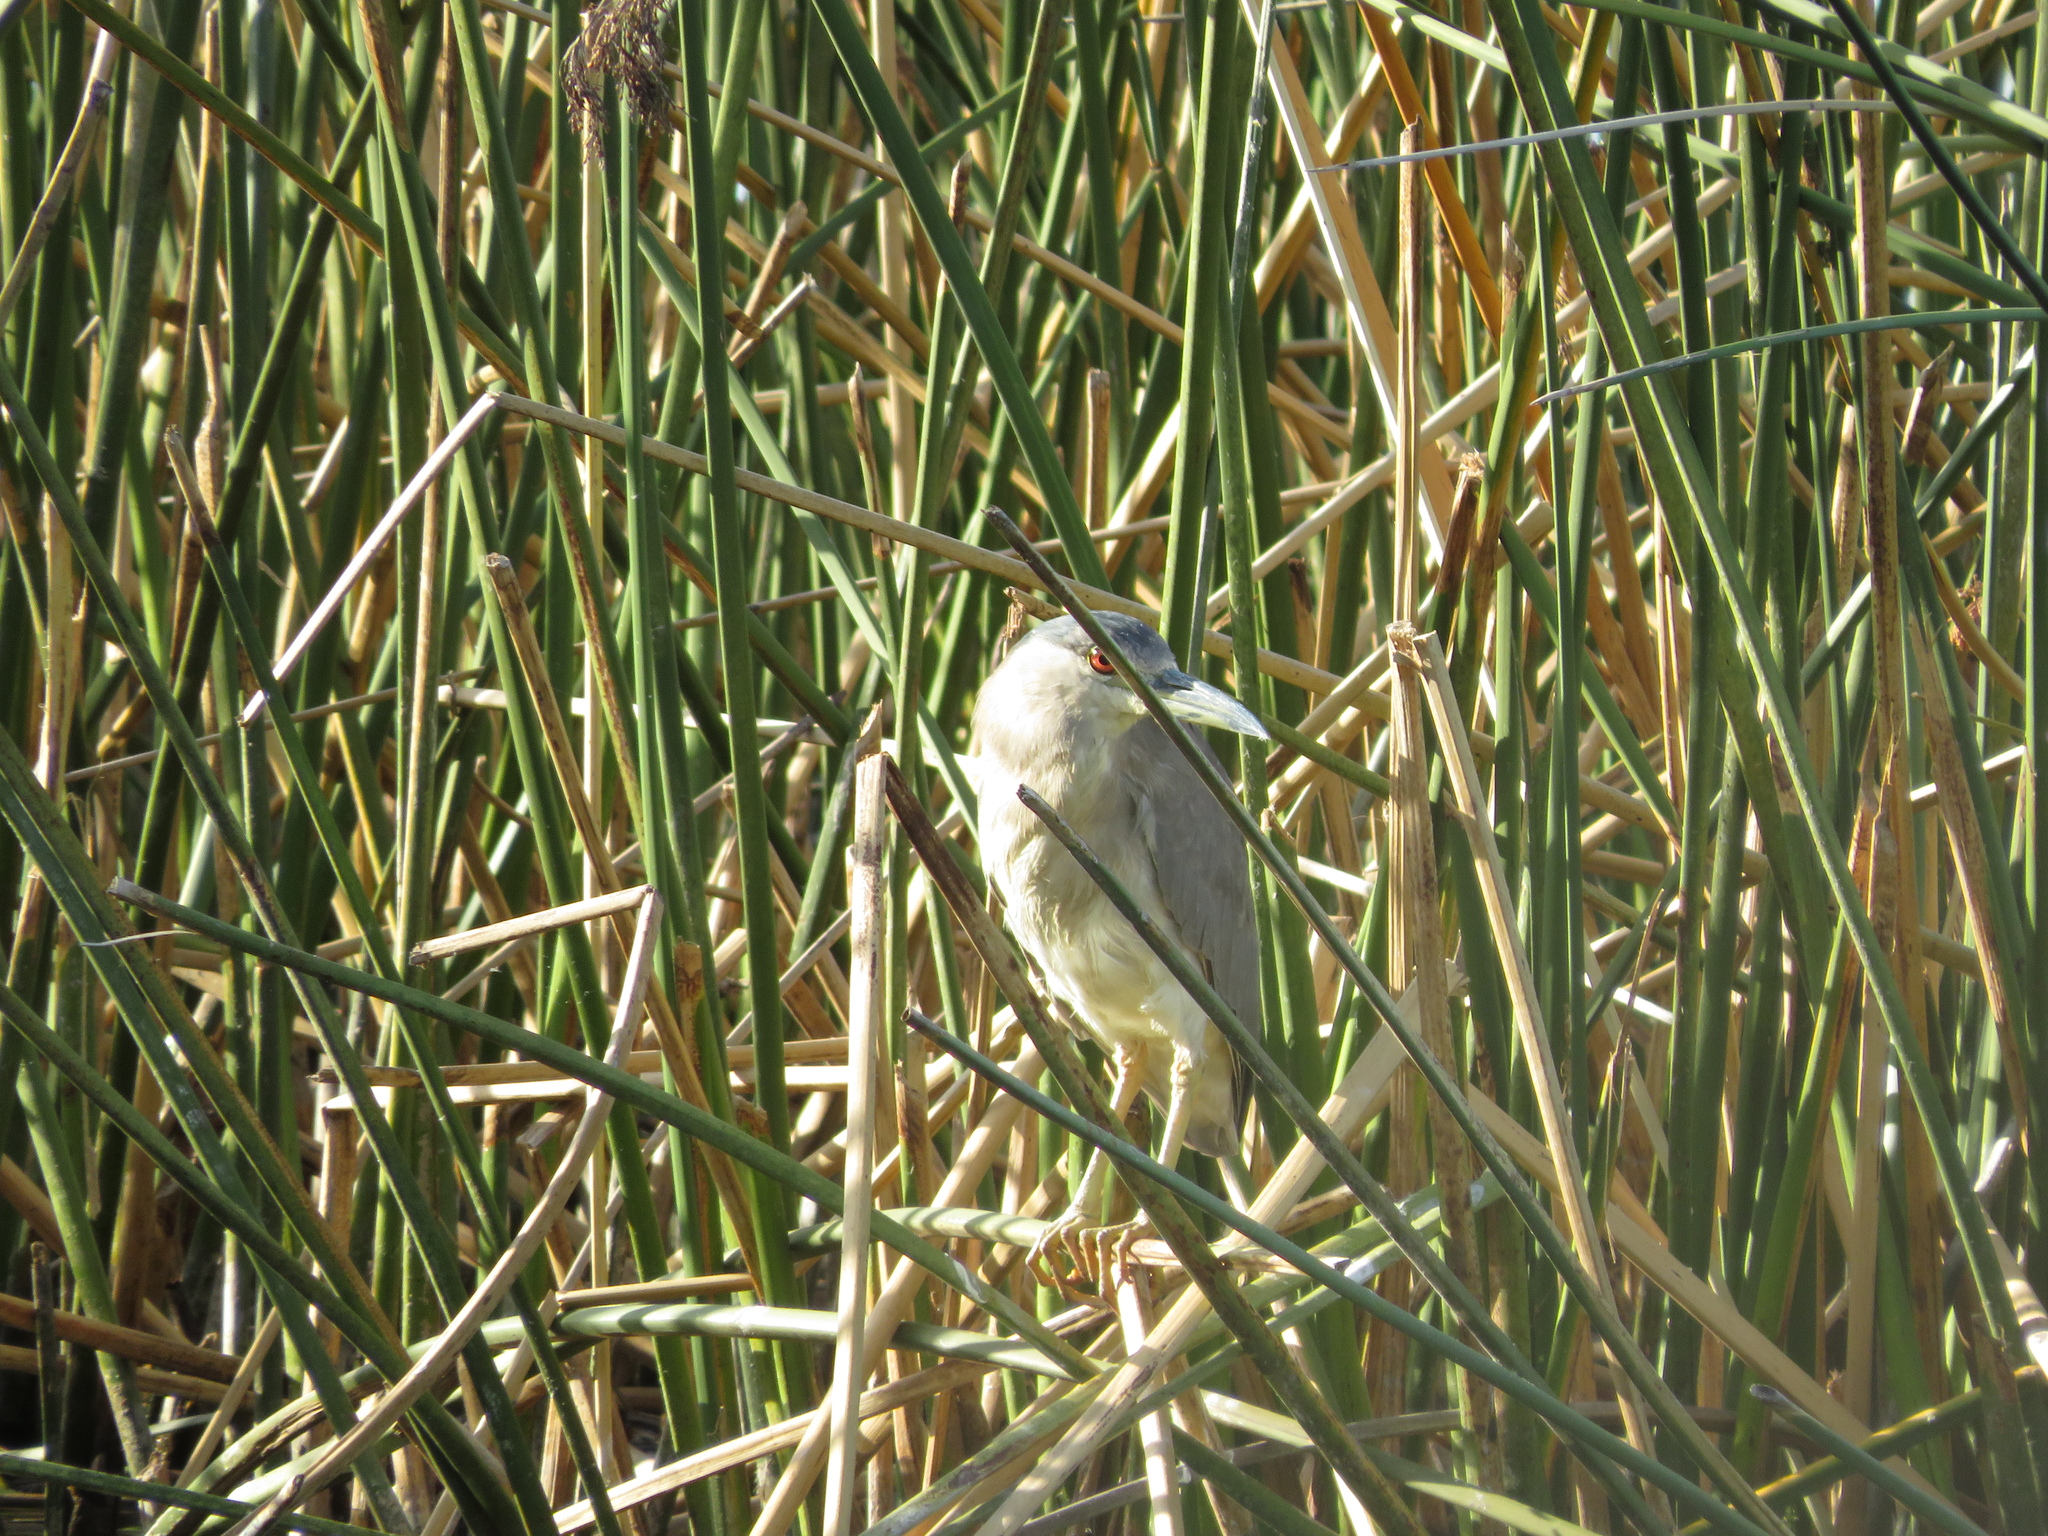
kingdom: Animalia
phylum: Chordata
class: Aves
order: Pelecaniformes
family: Ardeidae
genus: Nycticorax
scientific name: Nycticorax nycticorax
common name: Black-crowned night heron
